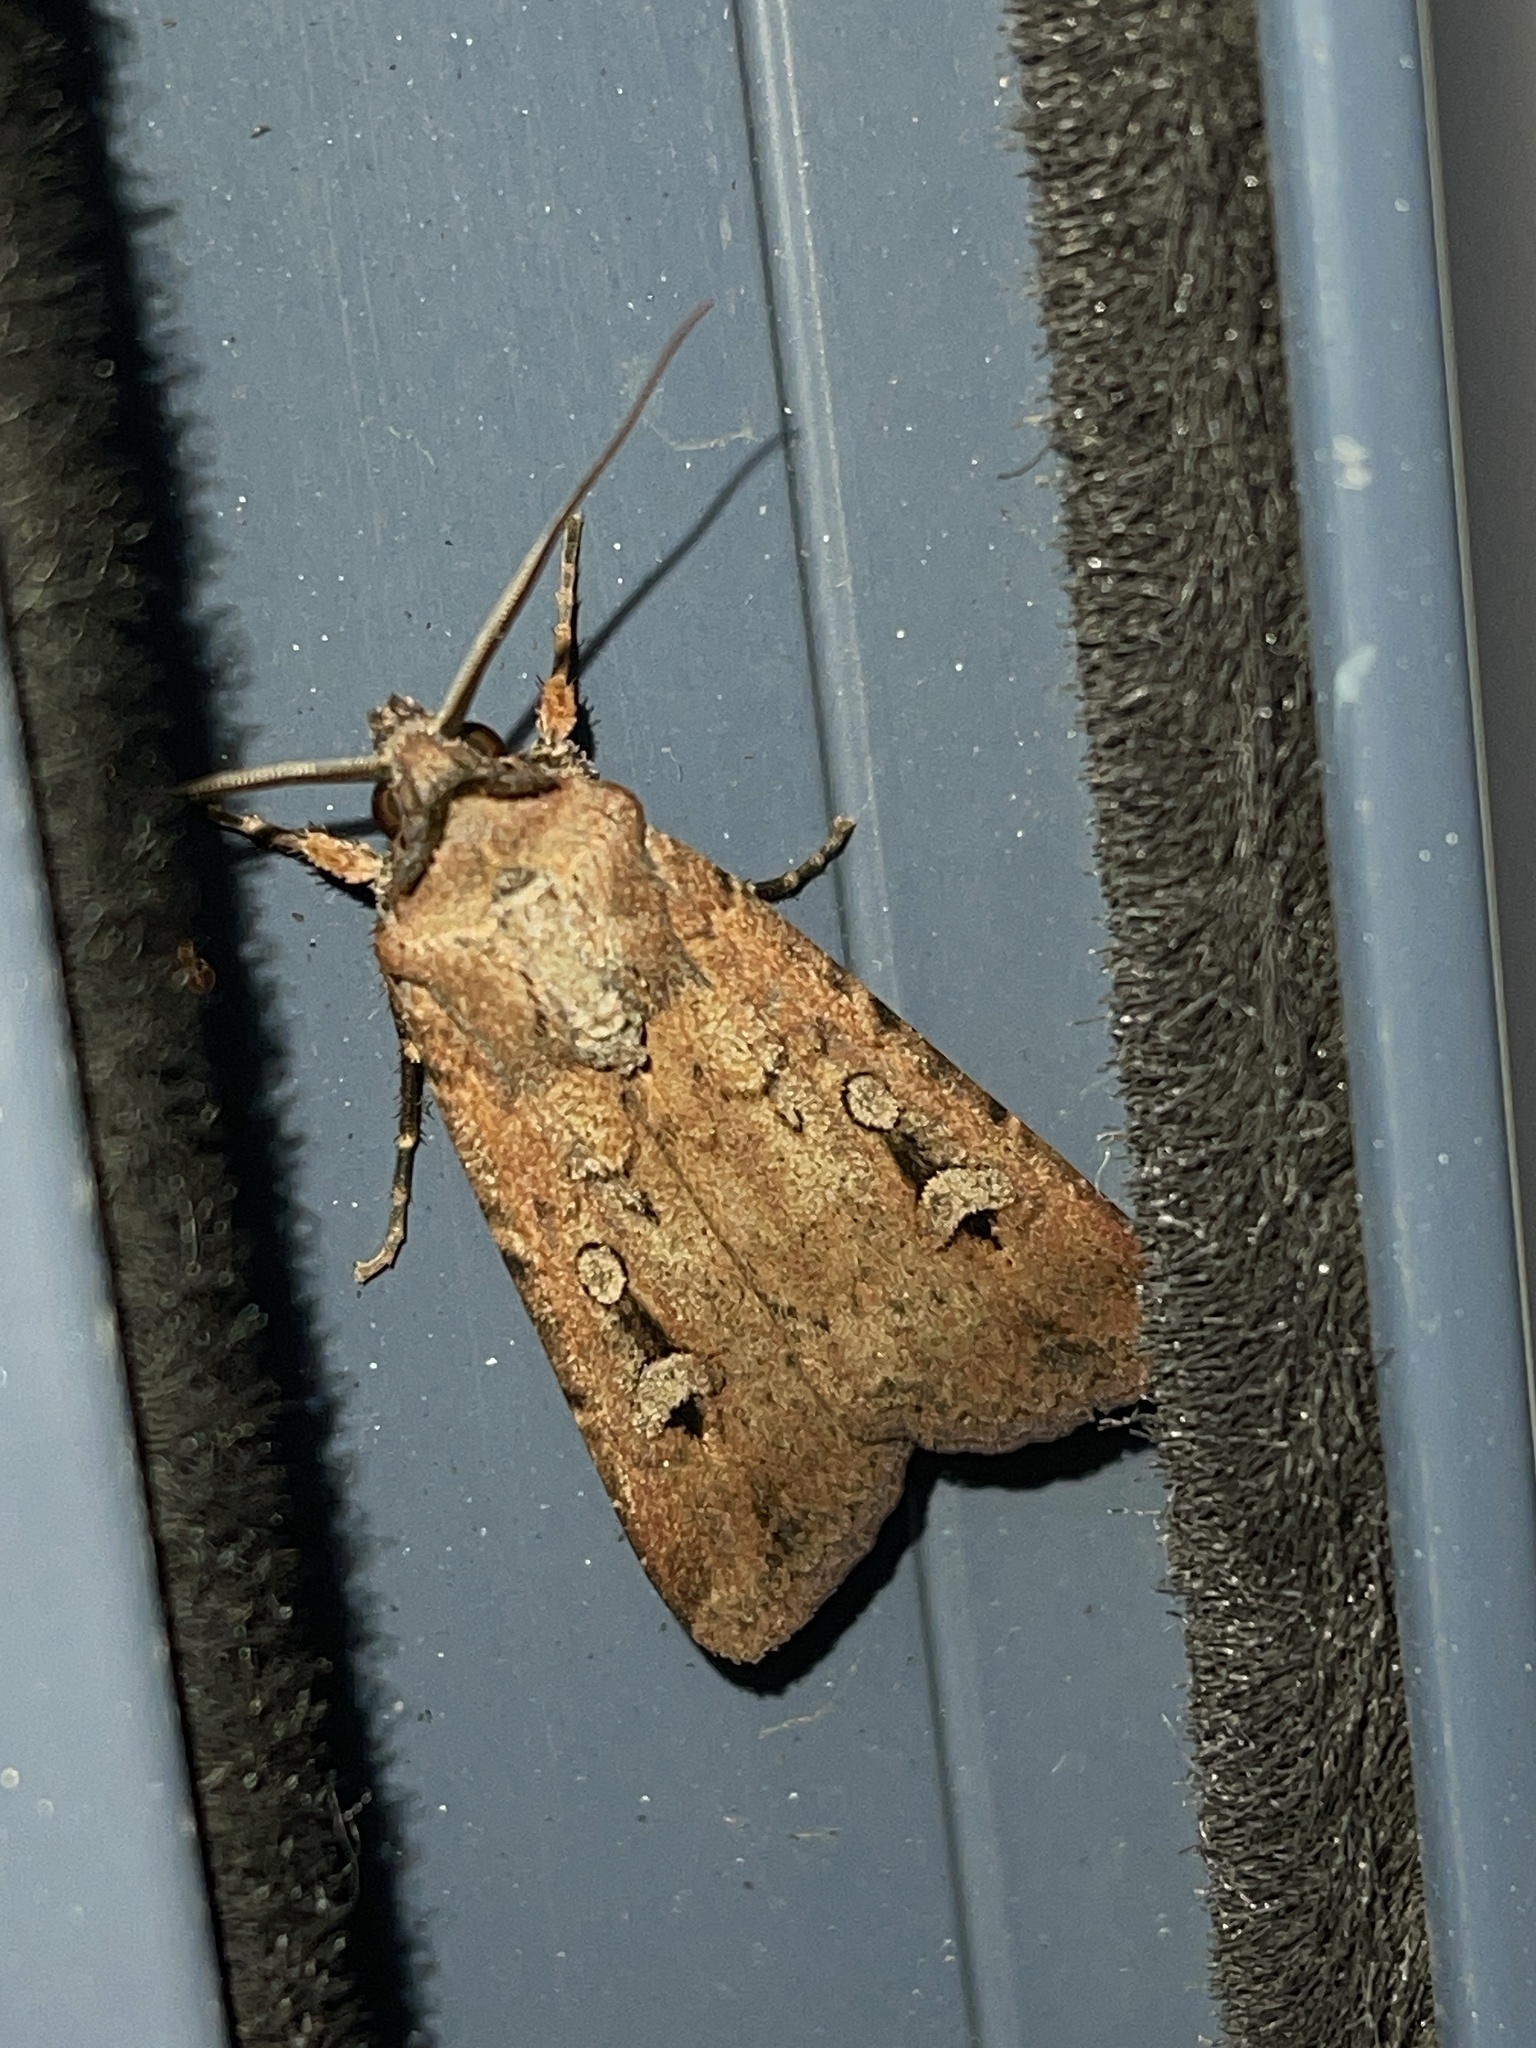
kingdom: Animalia
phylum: Arthropoda
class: Insecta
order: Lepidoptera
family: Noctuidae
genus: Agrotis
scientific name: Agrotis infusa
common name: Bogong moth
